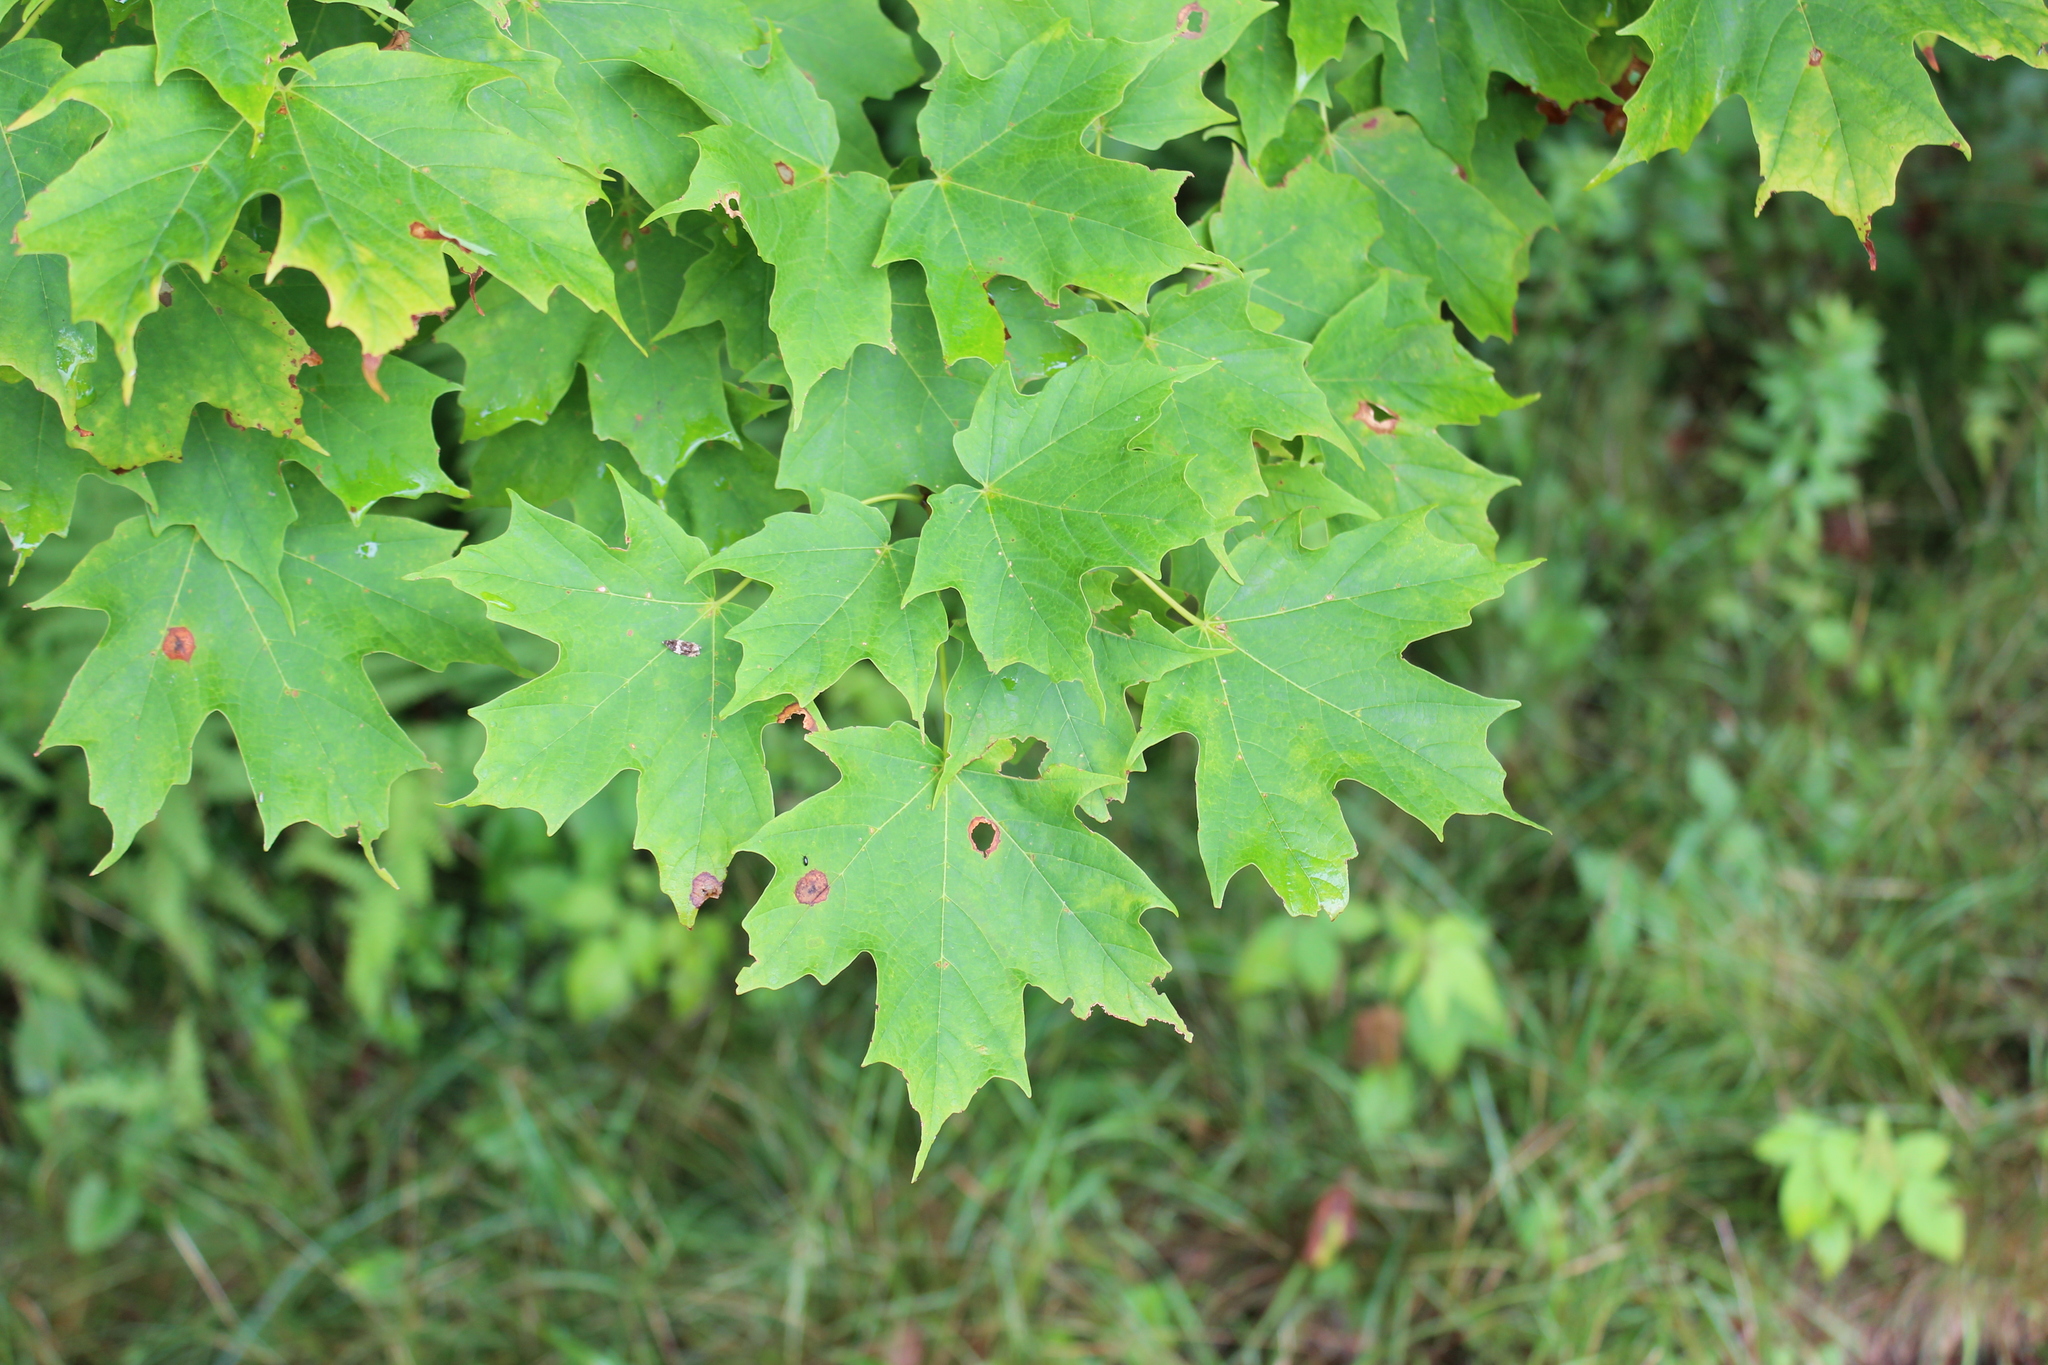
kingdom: Plantae
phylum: Tracheophyta
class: Magnoliopsida
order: Sapindales
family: Sapindaceae
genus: Acer
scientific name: Acer saccharum
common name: Sugar maple
